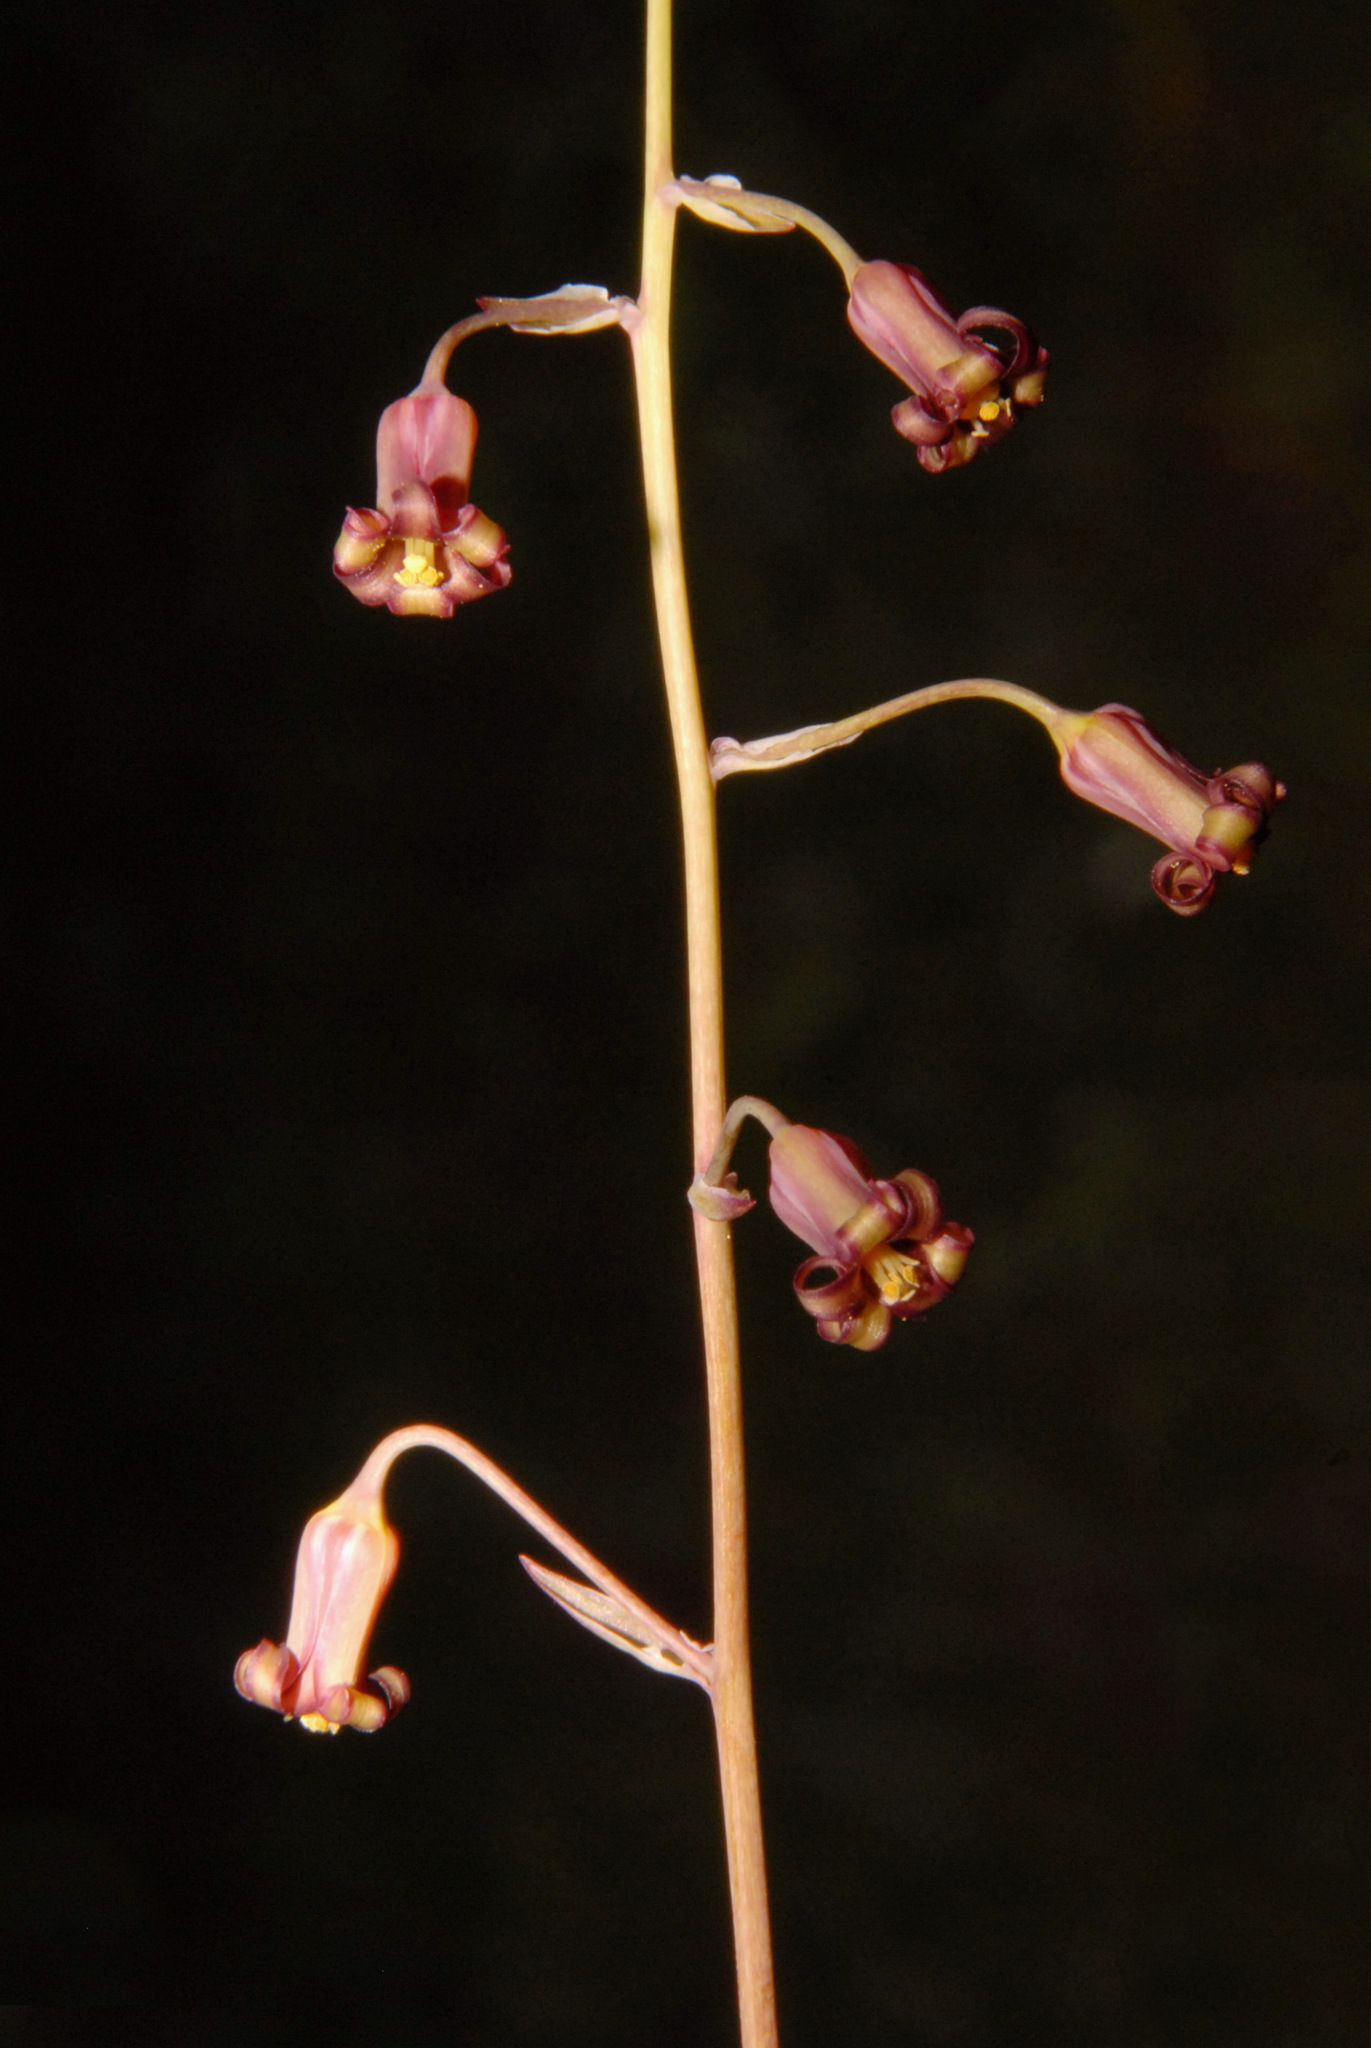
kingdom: Plantae
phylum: Tracheophyta
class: Liliopsida
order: Liliales
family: Melanthiaceae
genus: Anticlea
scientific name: Anticlea occidentalis
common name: Bronze-bells
